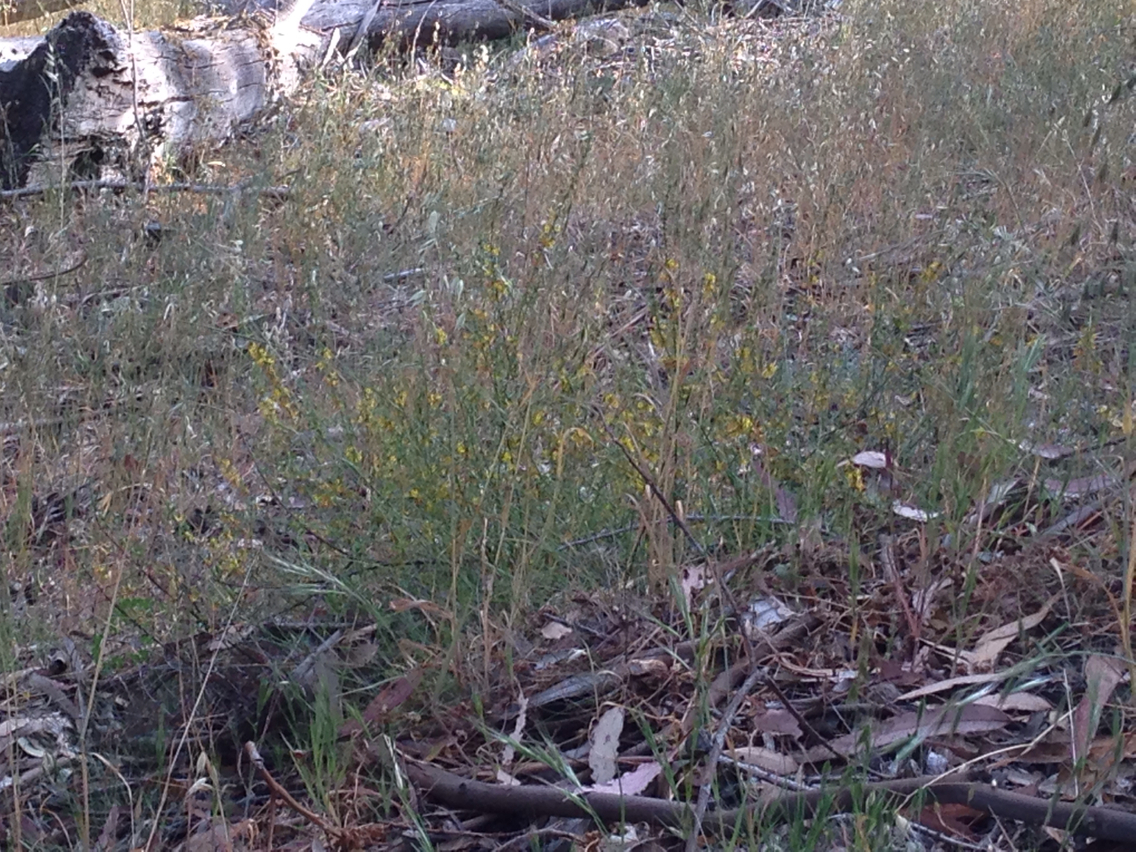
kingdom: Plantae
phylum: Tracheophyta
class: Magnoliopsida
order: Fabales
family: Fabaceae
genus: Acmispon
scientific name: Acmispon glaber
